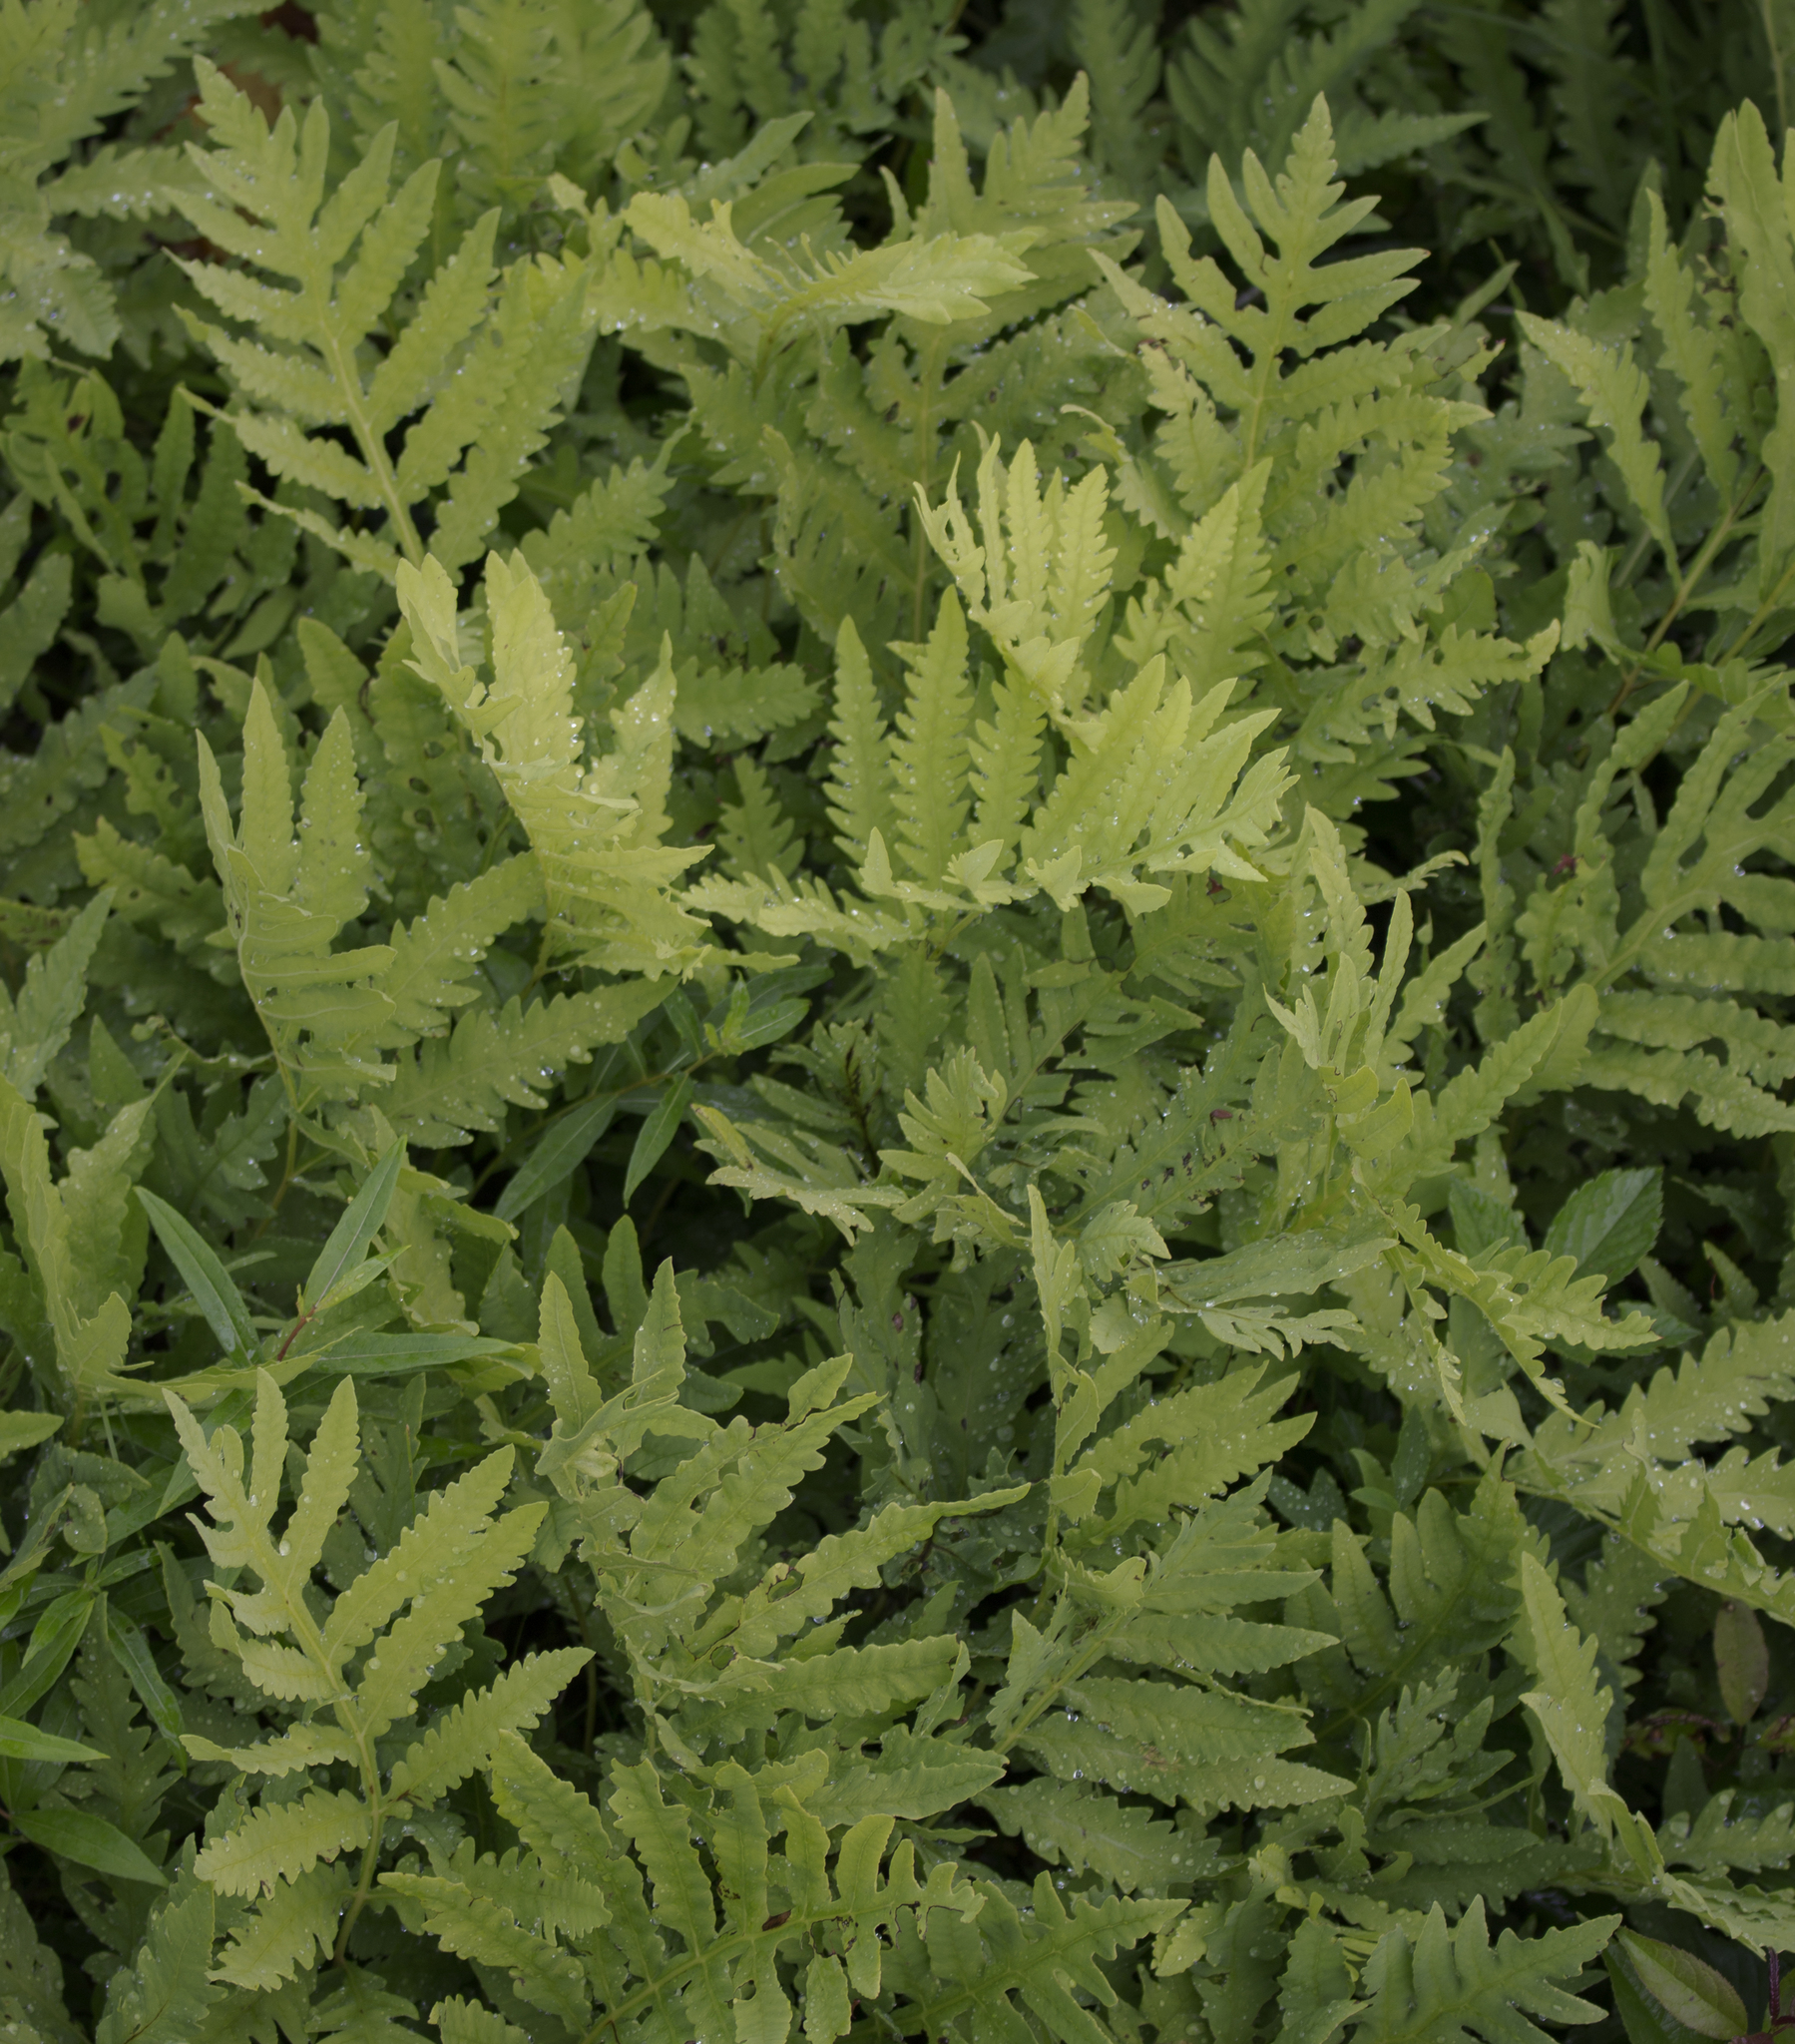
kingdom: Plantae
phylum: Tracheophyta
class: Polypodiopsida
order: Polypodiales
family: Onocleaceae
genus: Onoclea
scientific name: Onoclea sensibilis
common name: Sensitive fern
